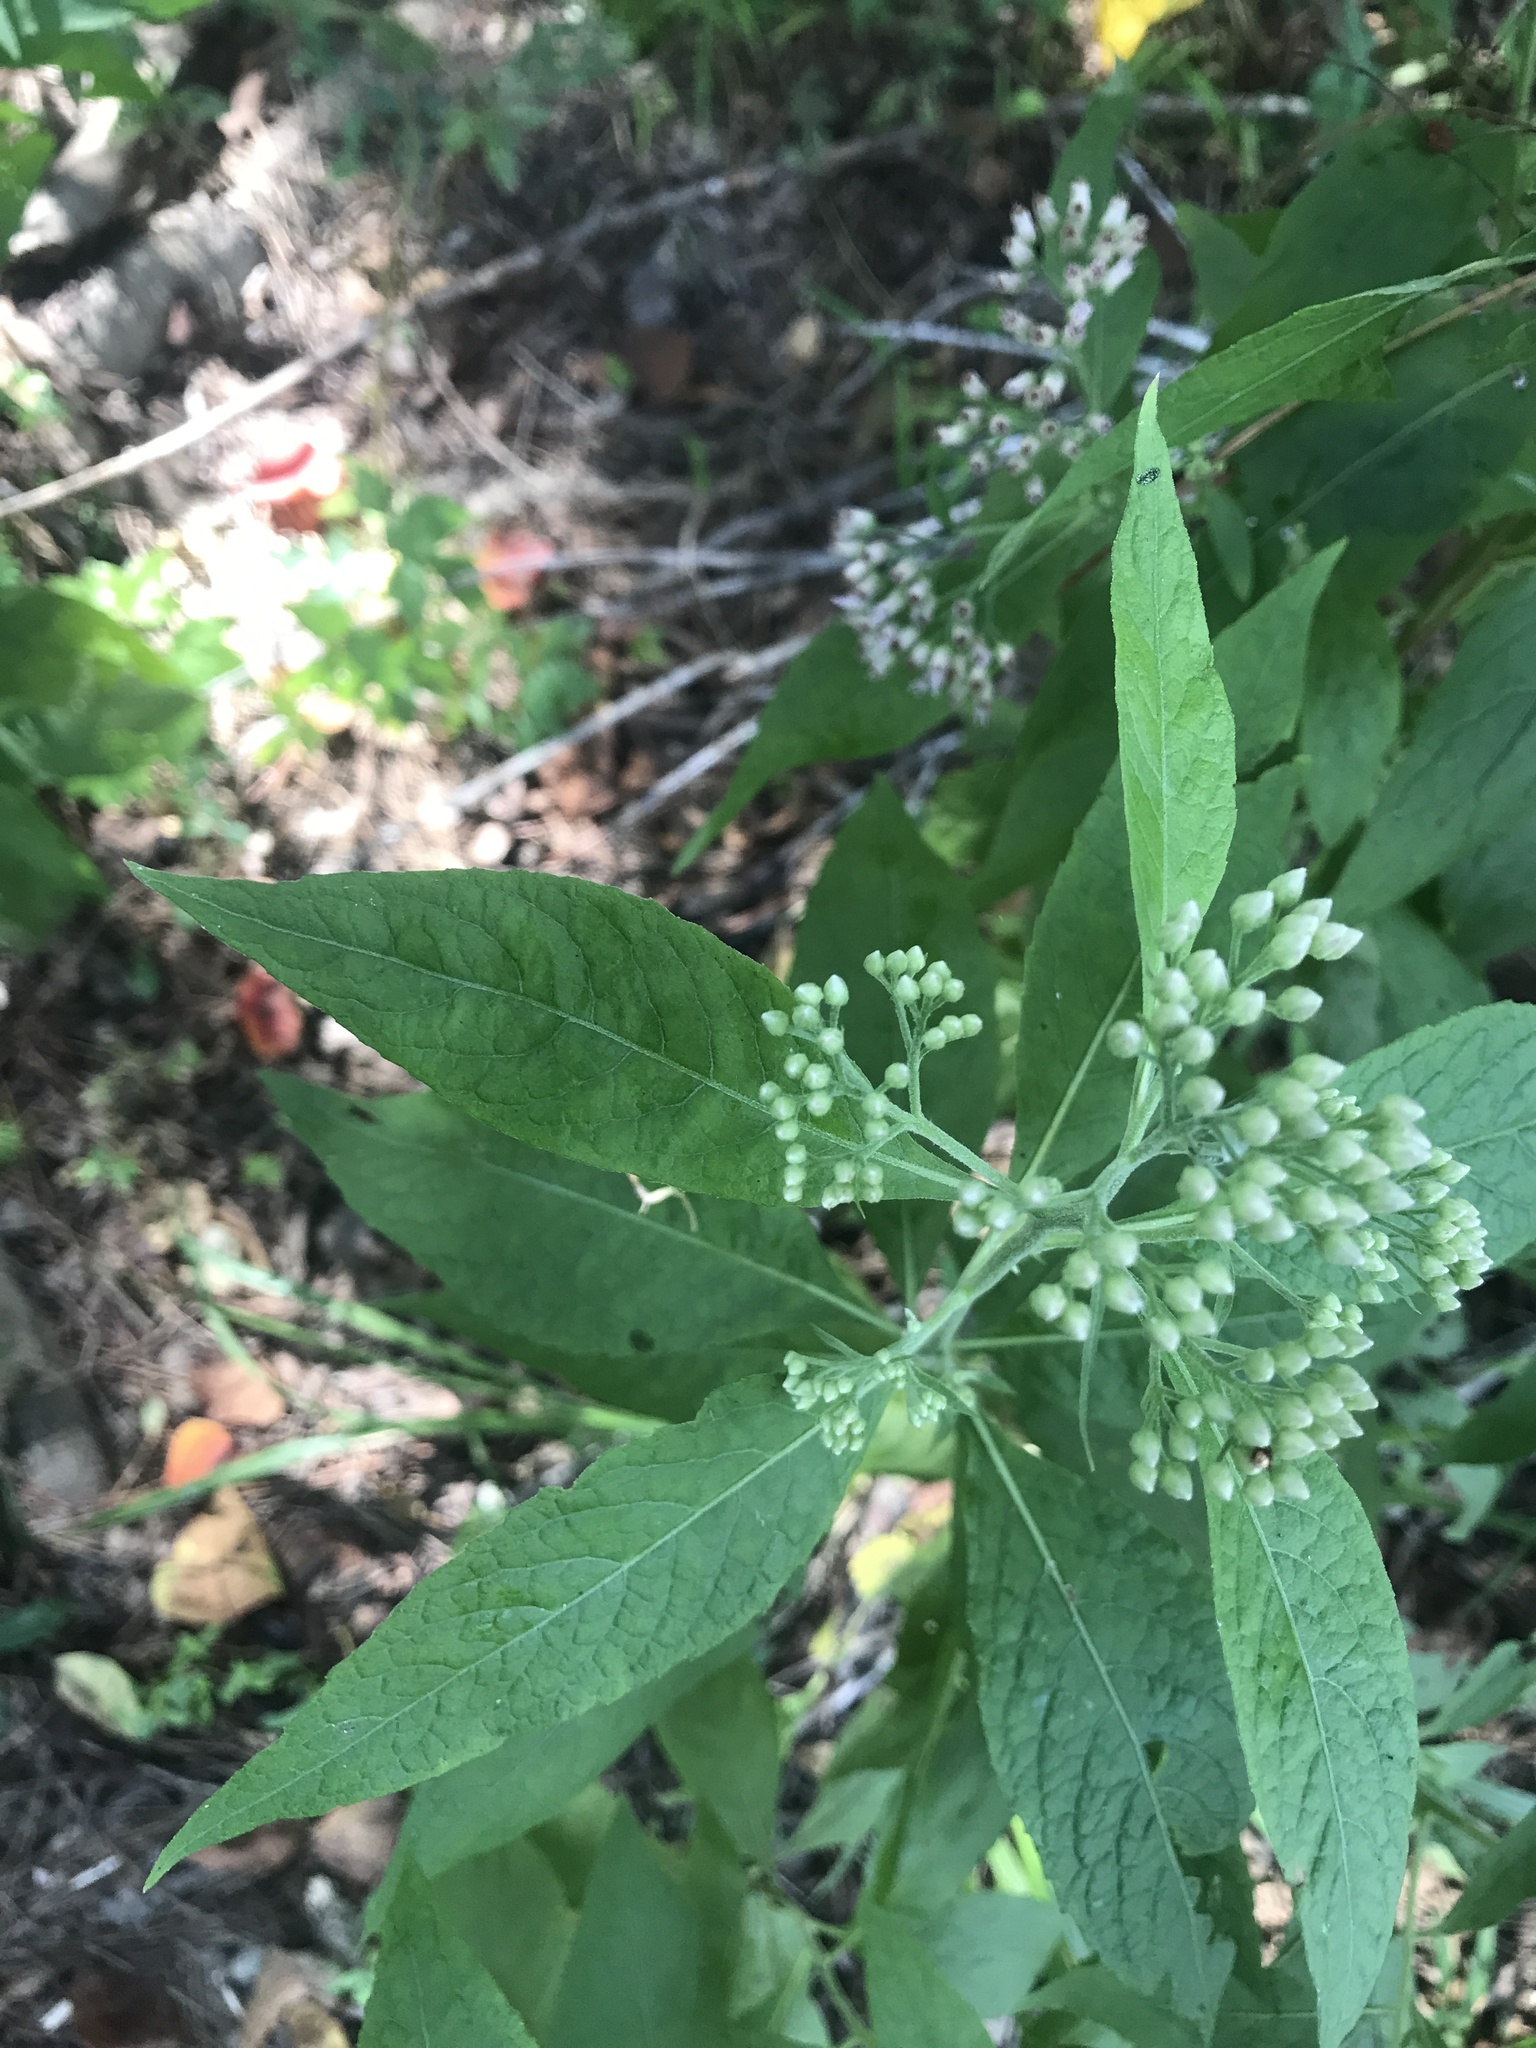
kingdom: Plantae
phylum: Tracheophyta
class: Magnoliopsida
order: Asterales
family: Asteraceae
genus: Pluchea
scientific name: Pluchea camphorata
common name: Camphor pluchea
